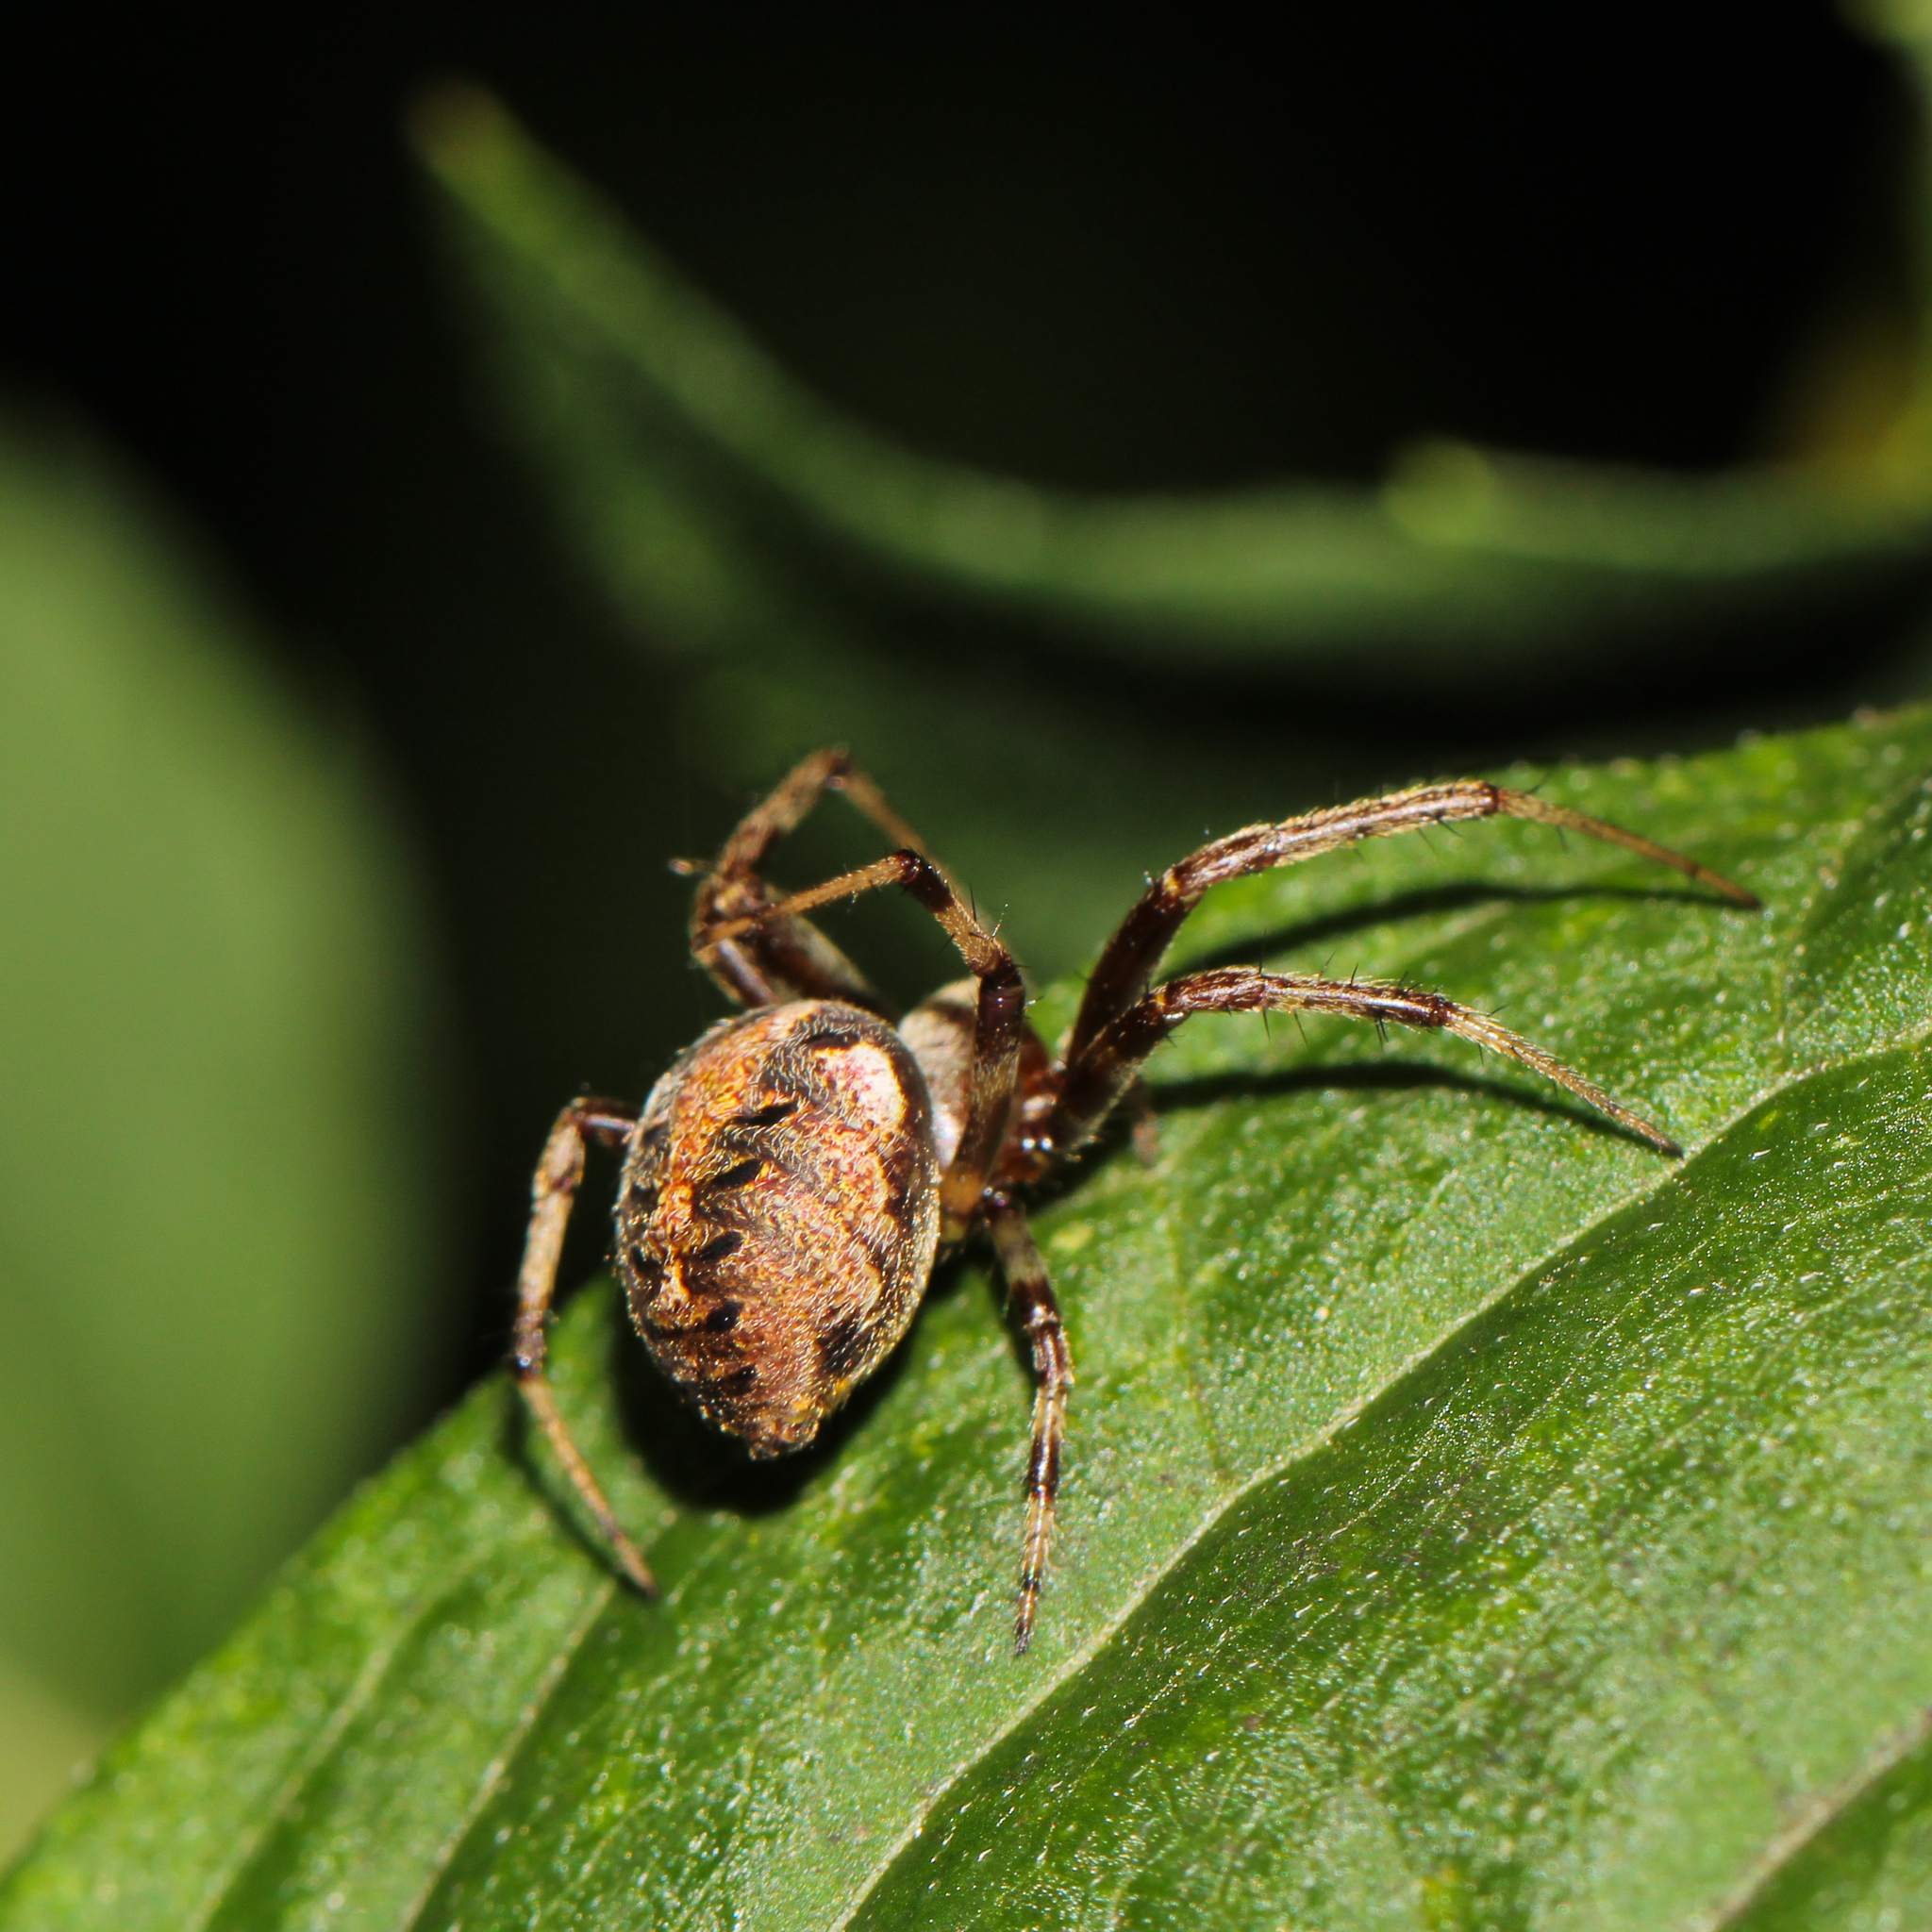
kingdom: Animalia
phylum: Arthropoda
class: Arachnida
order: Araneae
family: Araneidae
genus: Neoscona
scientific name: Neoscona arabesca
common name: Orb weavers
